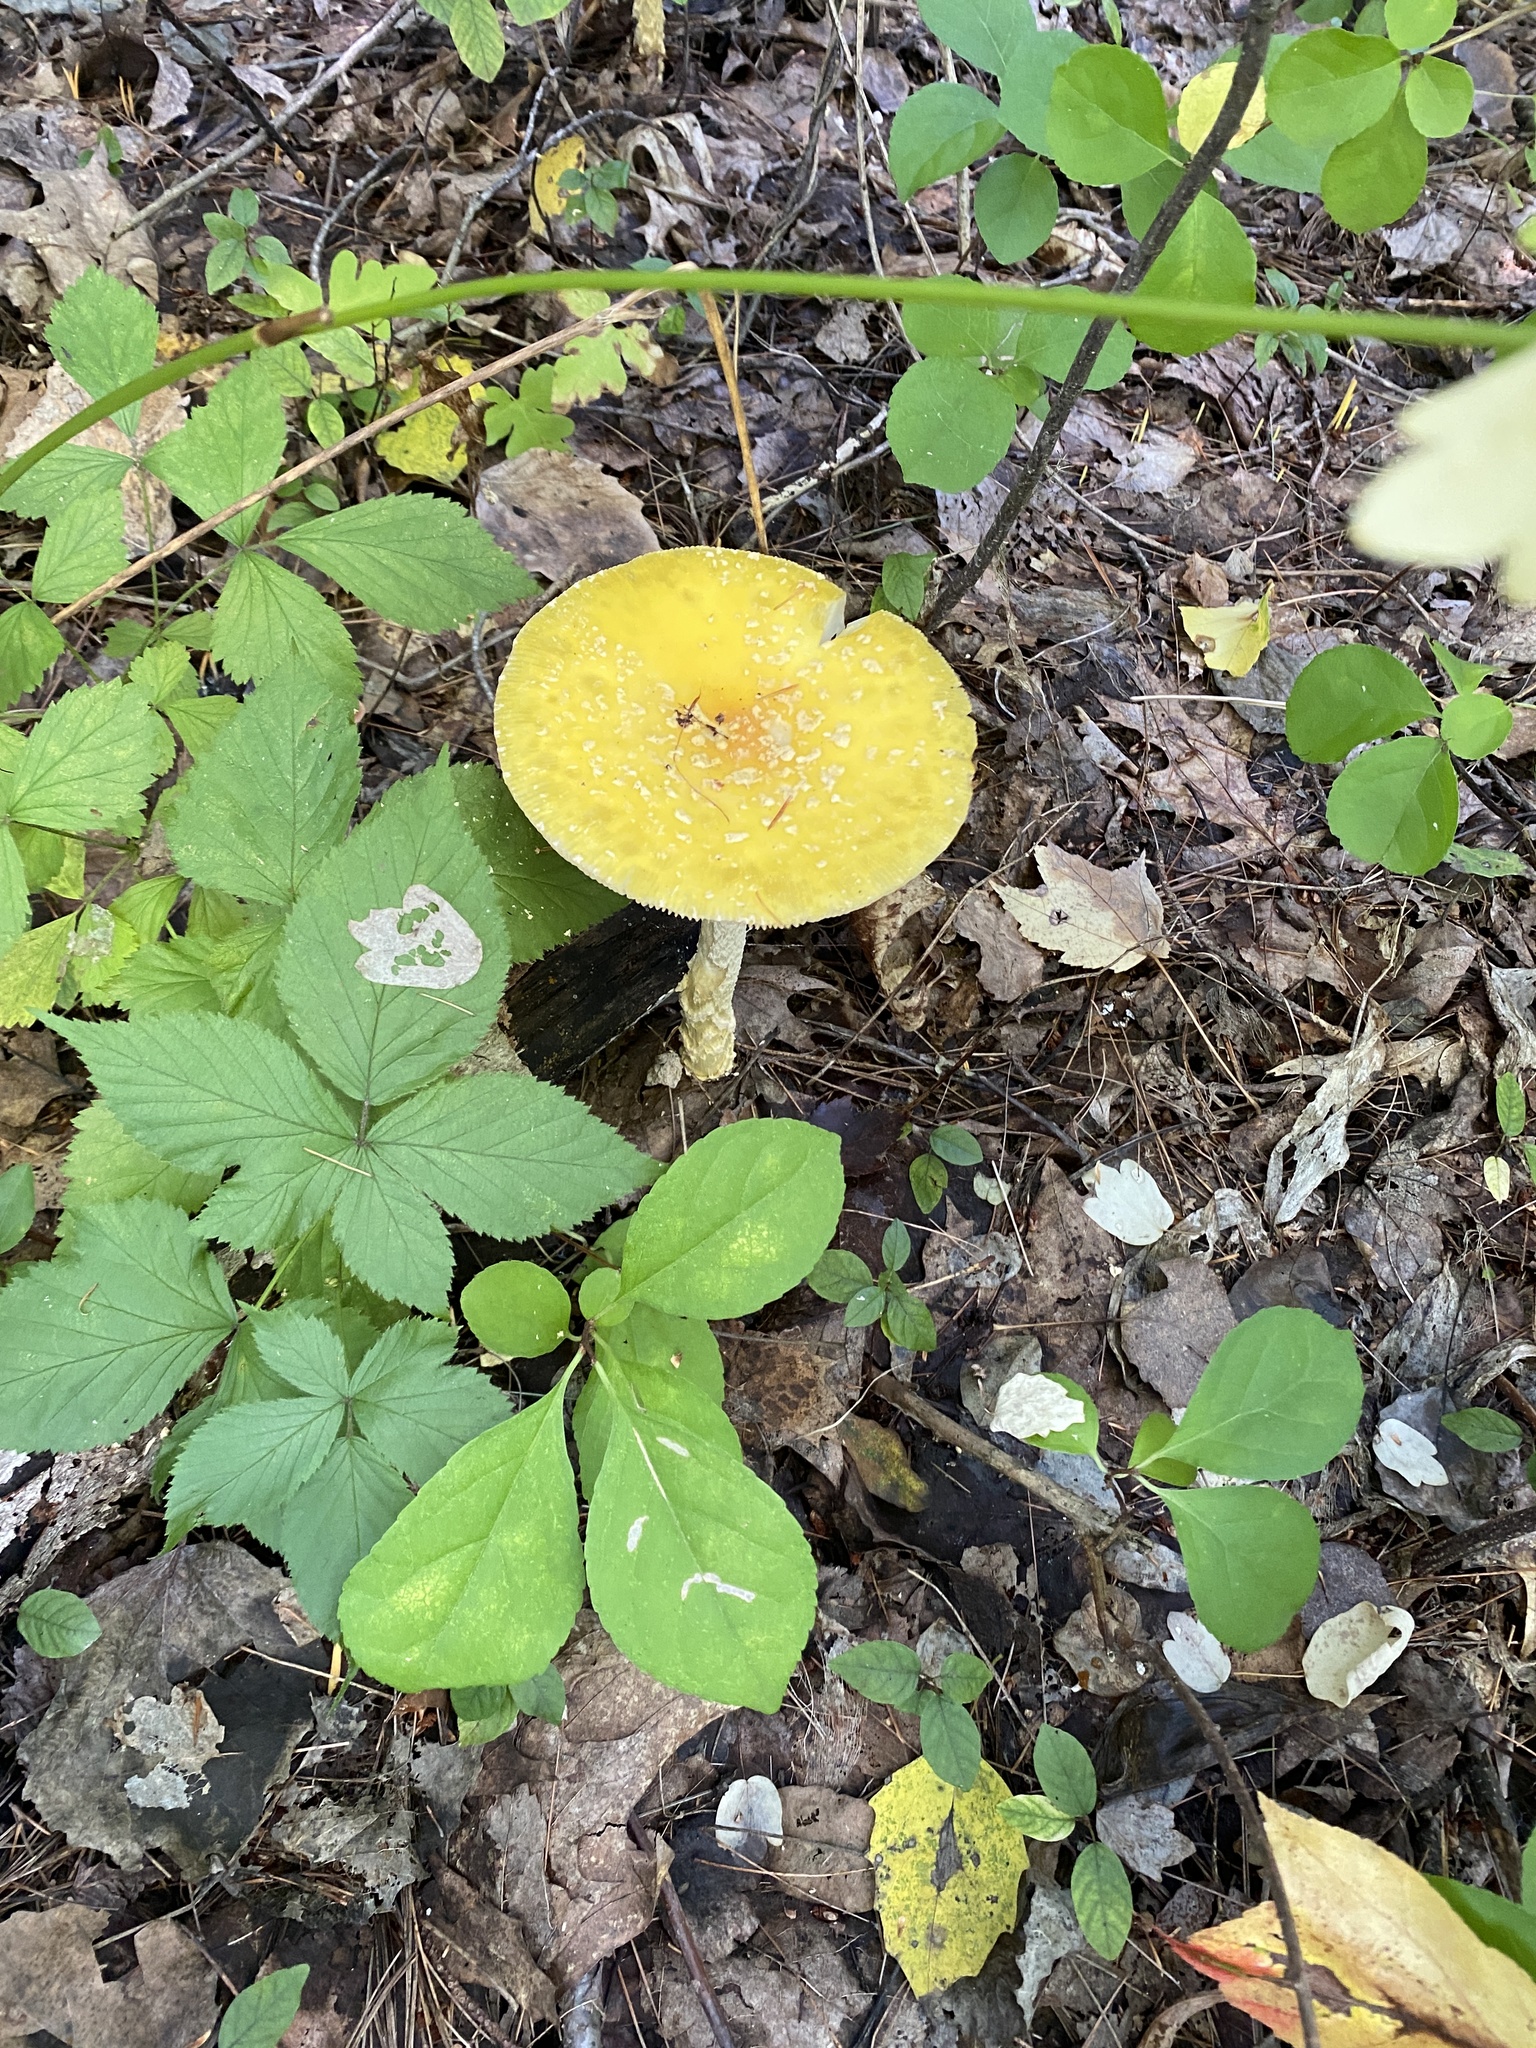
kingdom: Fungi
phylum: Basidiomycota
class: Agaricomycetes
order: Agaricales
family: Amanitaceae
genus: Amanita
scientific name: Amanita muscaria
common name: Fly agaric
